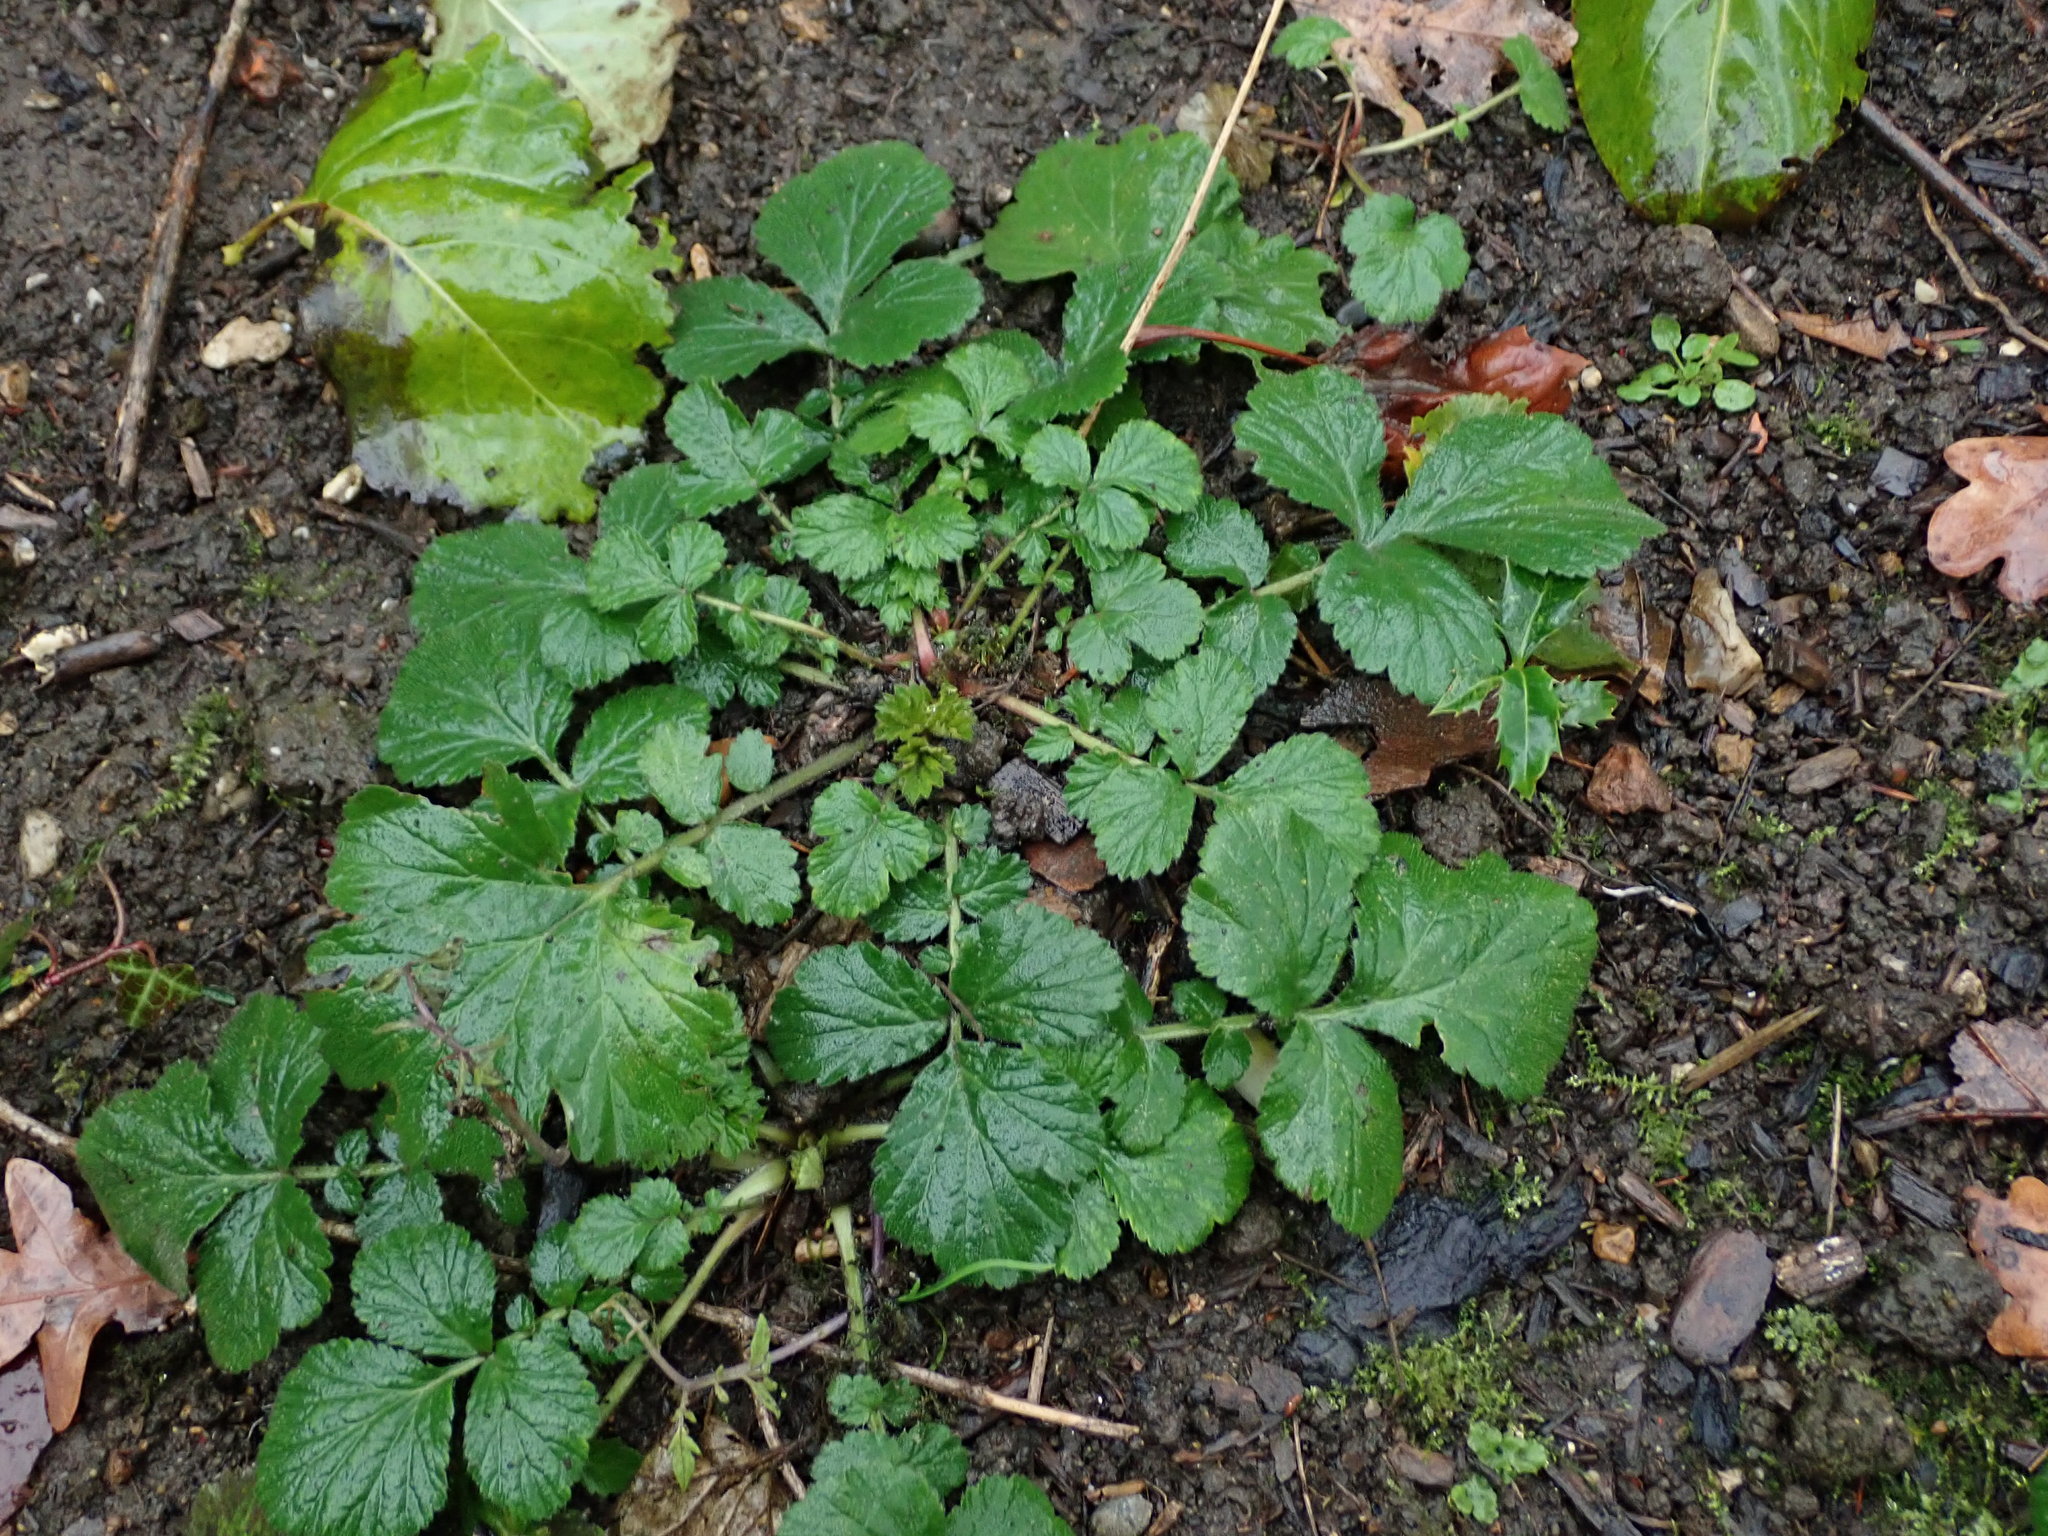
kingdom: Plantae
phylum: Tracheophyta
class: Magnoliopsida
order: Rosales
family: Rosaceae
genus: Geum
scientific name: Geum urbanum
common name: Wood avens
